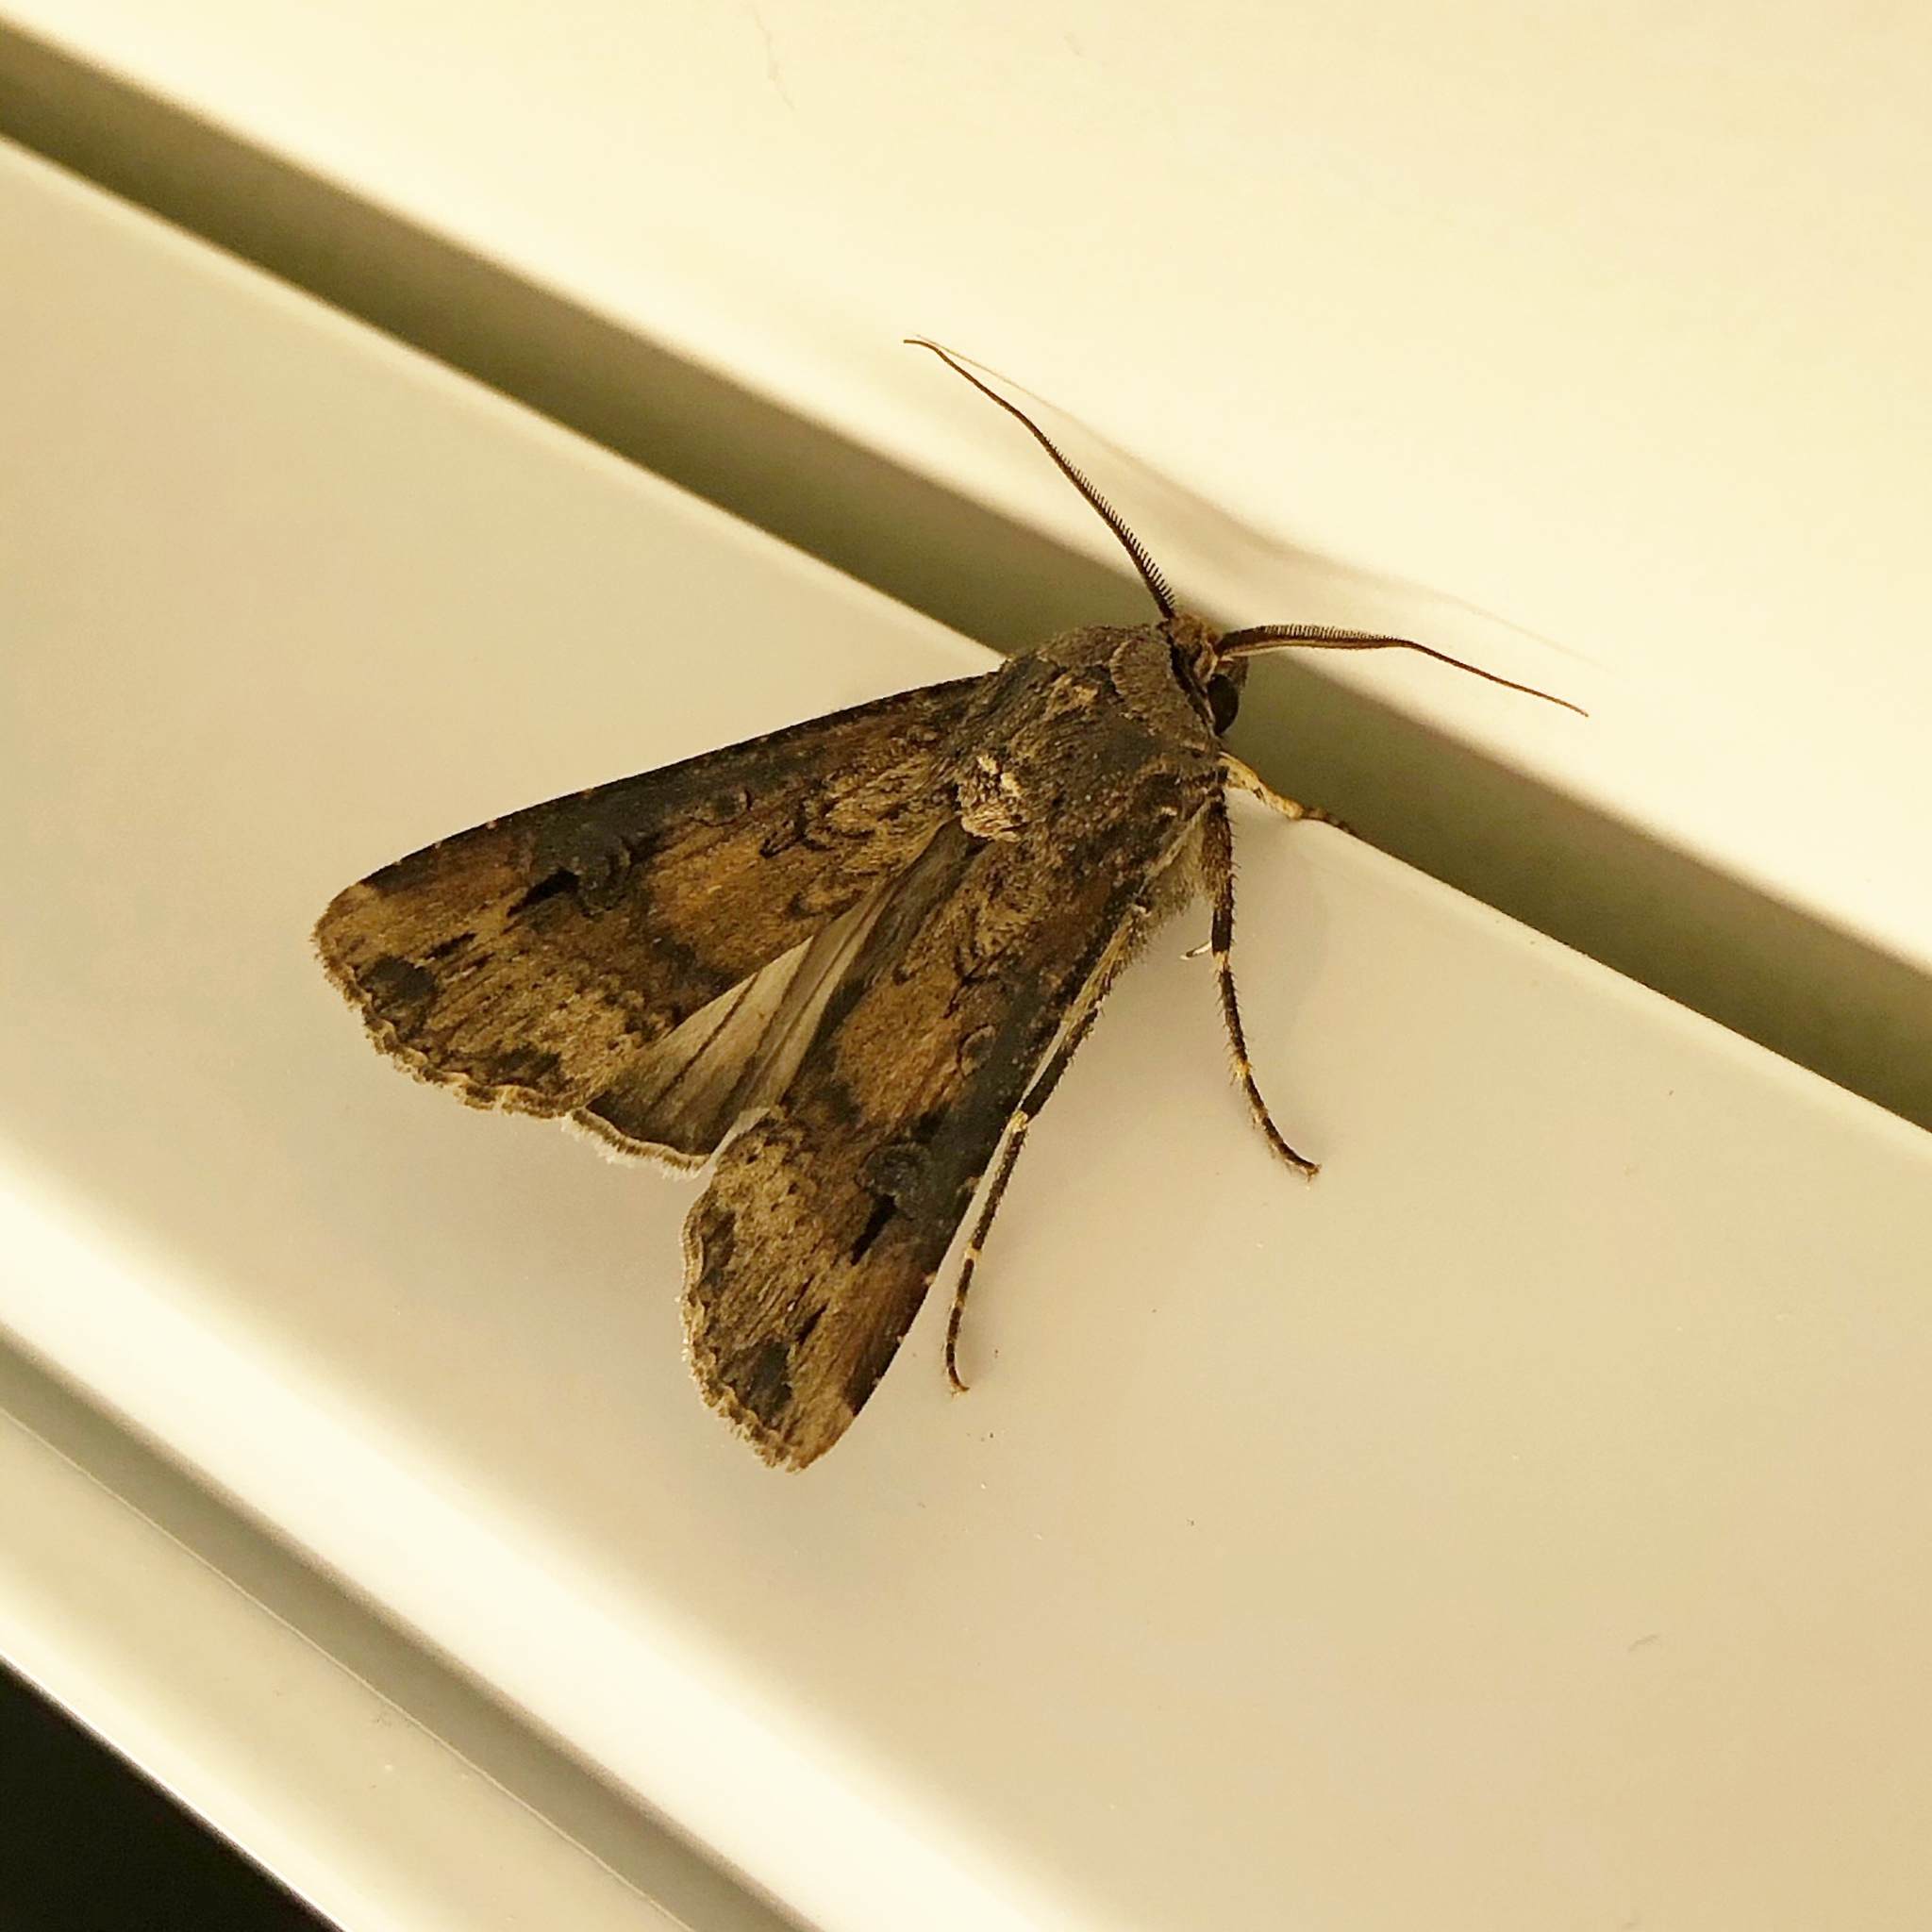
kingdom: Animalia
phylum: Arthropoda
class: Insecta
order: Lepidoptera
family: Noctuidae
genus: Agrotis
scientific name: Agrotis ipsilon
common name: Dark sword-grass
